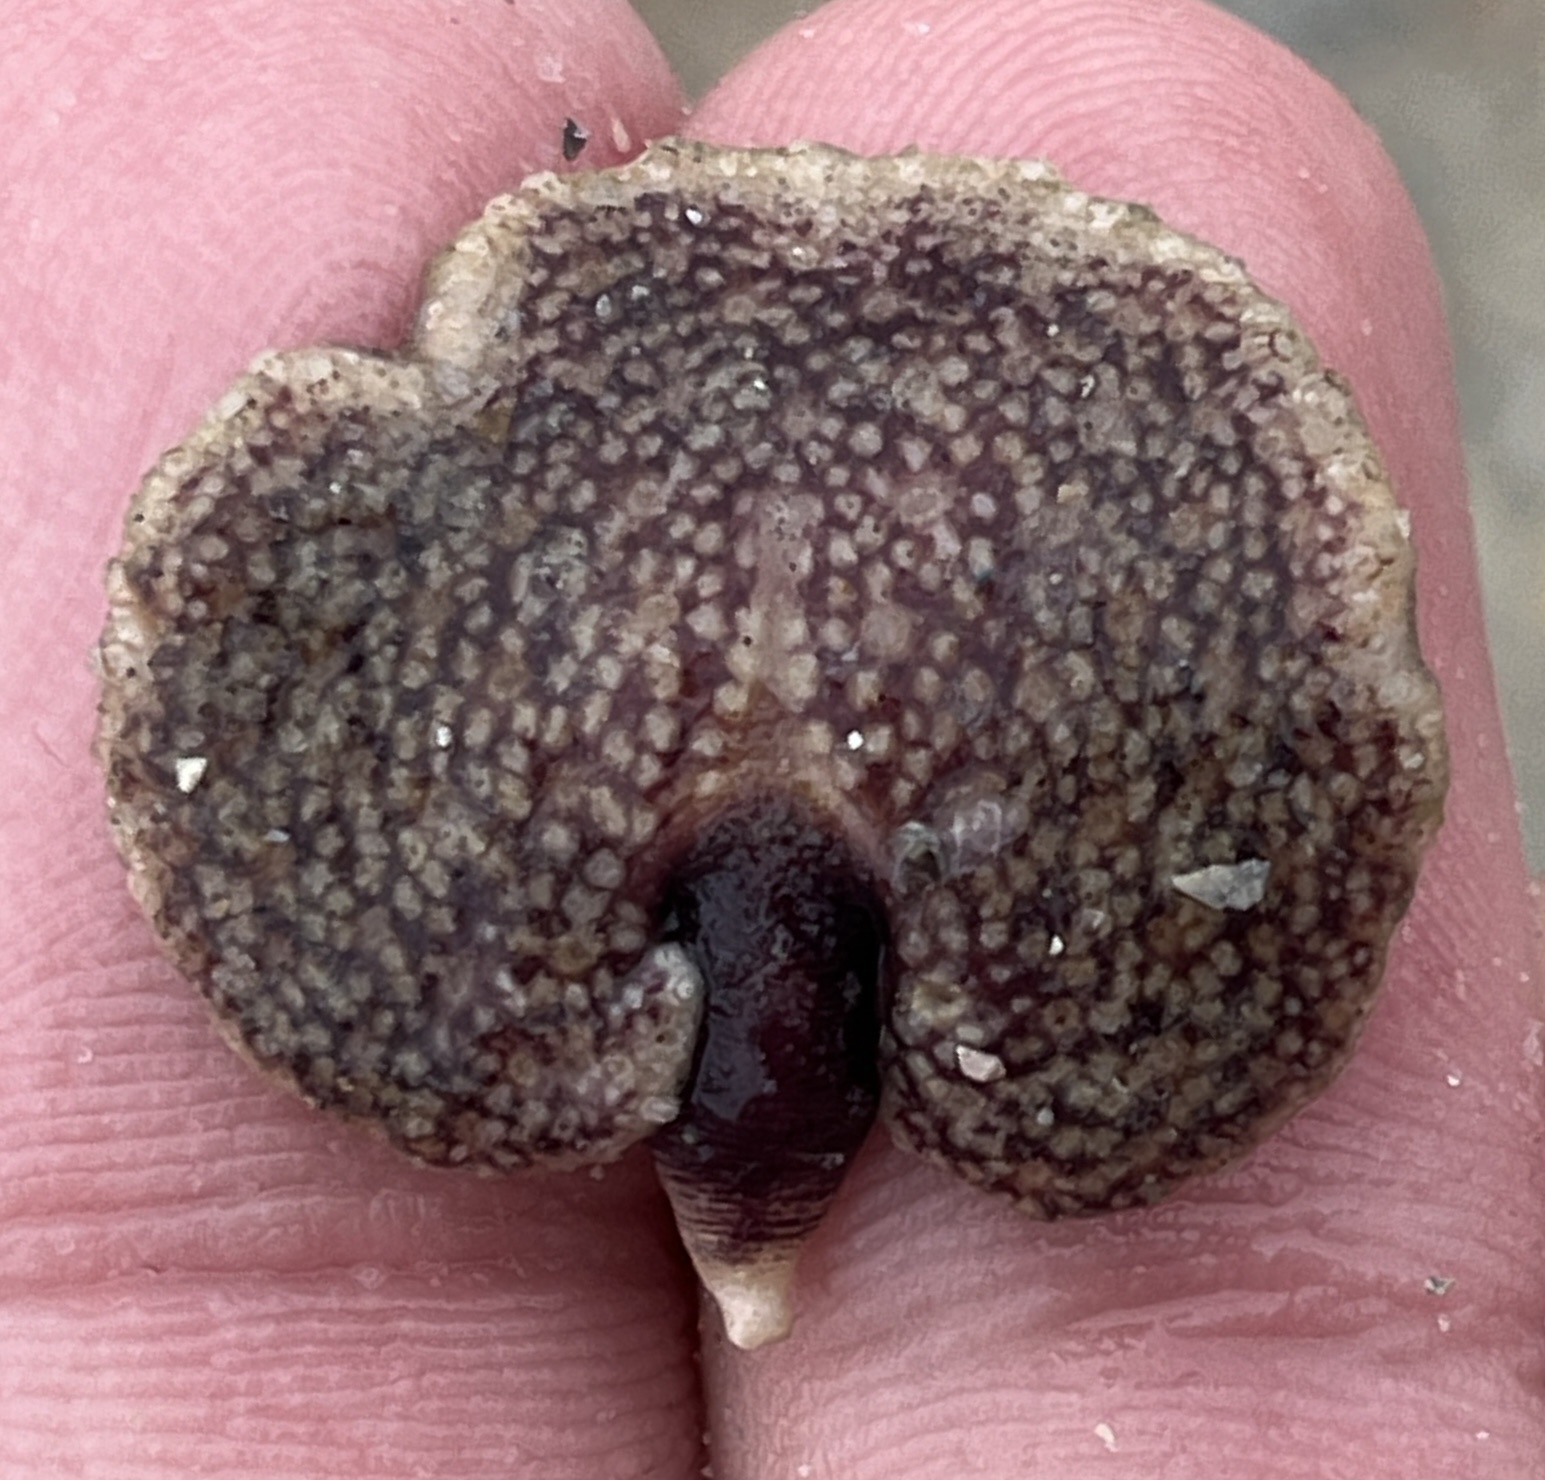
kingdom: Animalia
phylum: Cnidaria
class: Anthozoa
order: Scleralcyonacea
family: Renillidae
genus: Renilla
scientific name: Renilla reniformis
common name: Sea pansy
